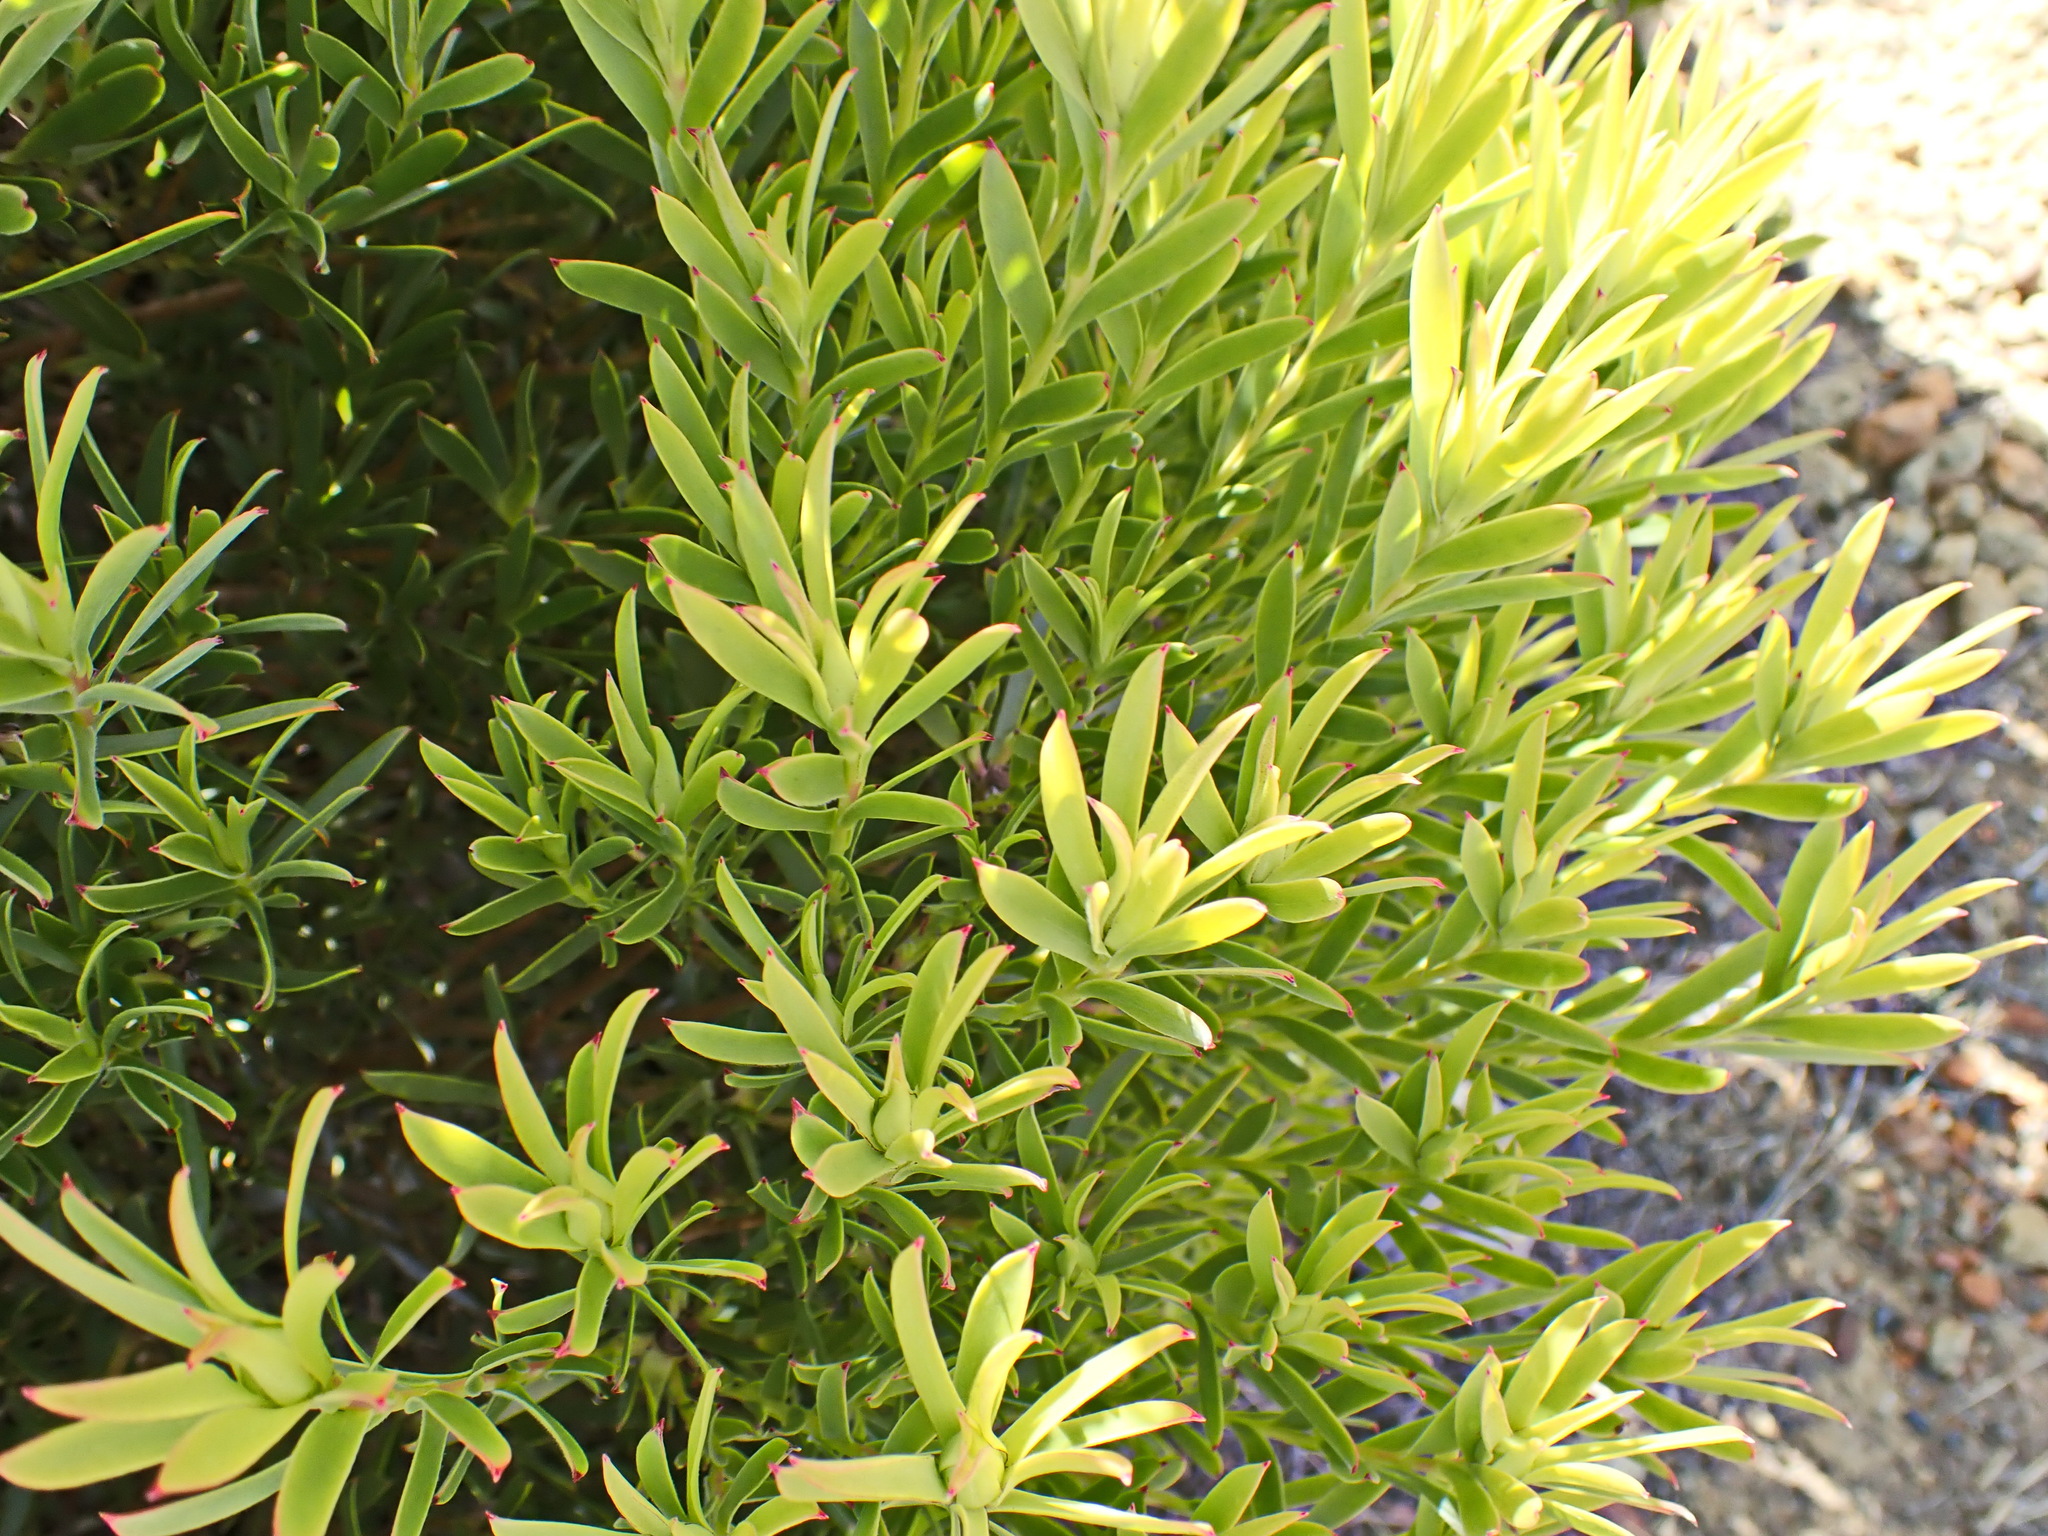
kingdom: Plantae
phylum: Tracheophyta
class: Magnoliopsida
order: Proteales
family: Proteaceae
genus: Leucadendron
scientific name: Leucadendron meridianum
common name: Limestone conebush
